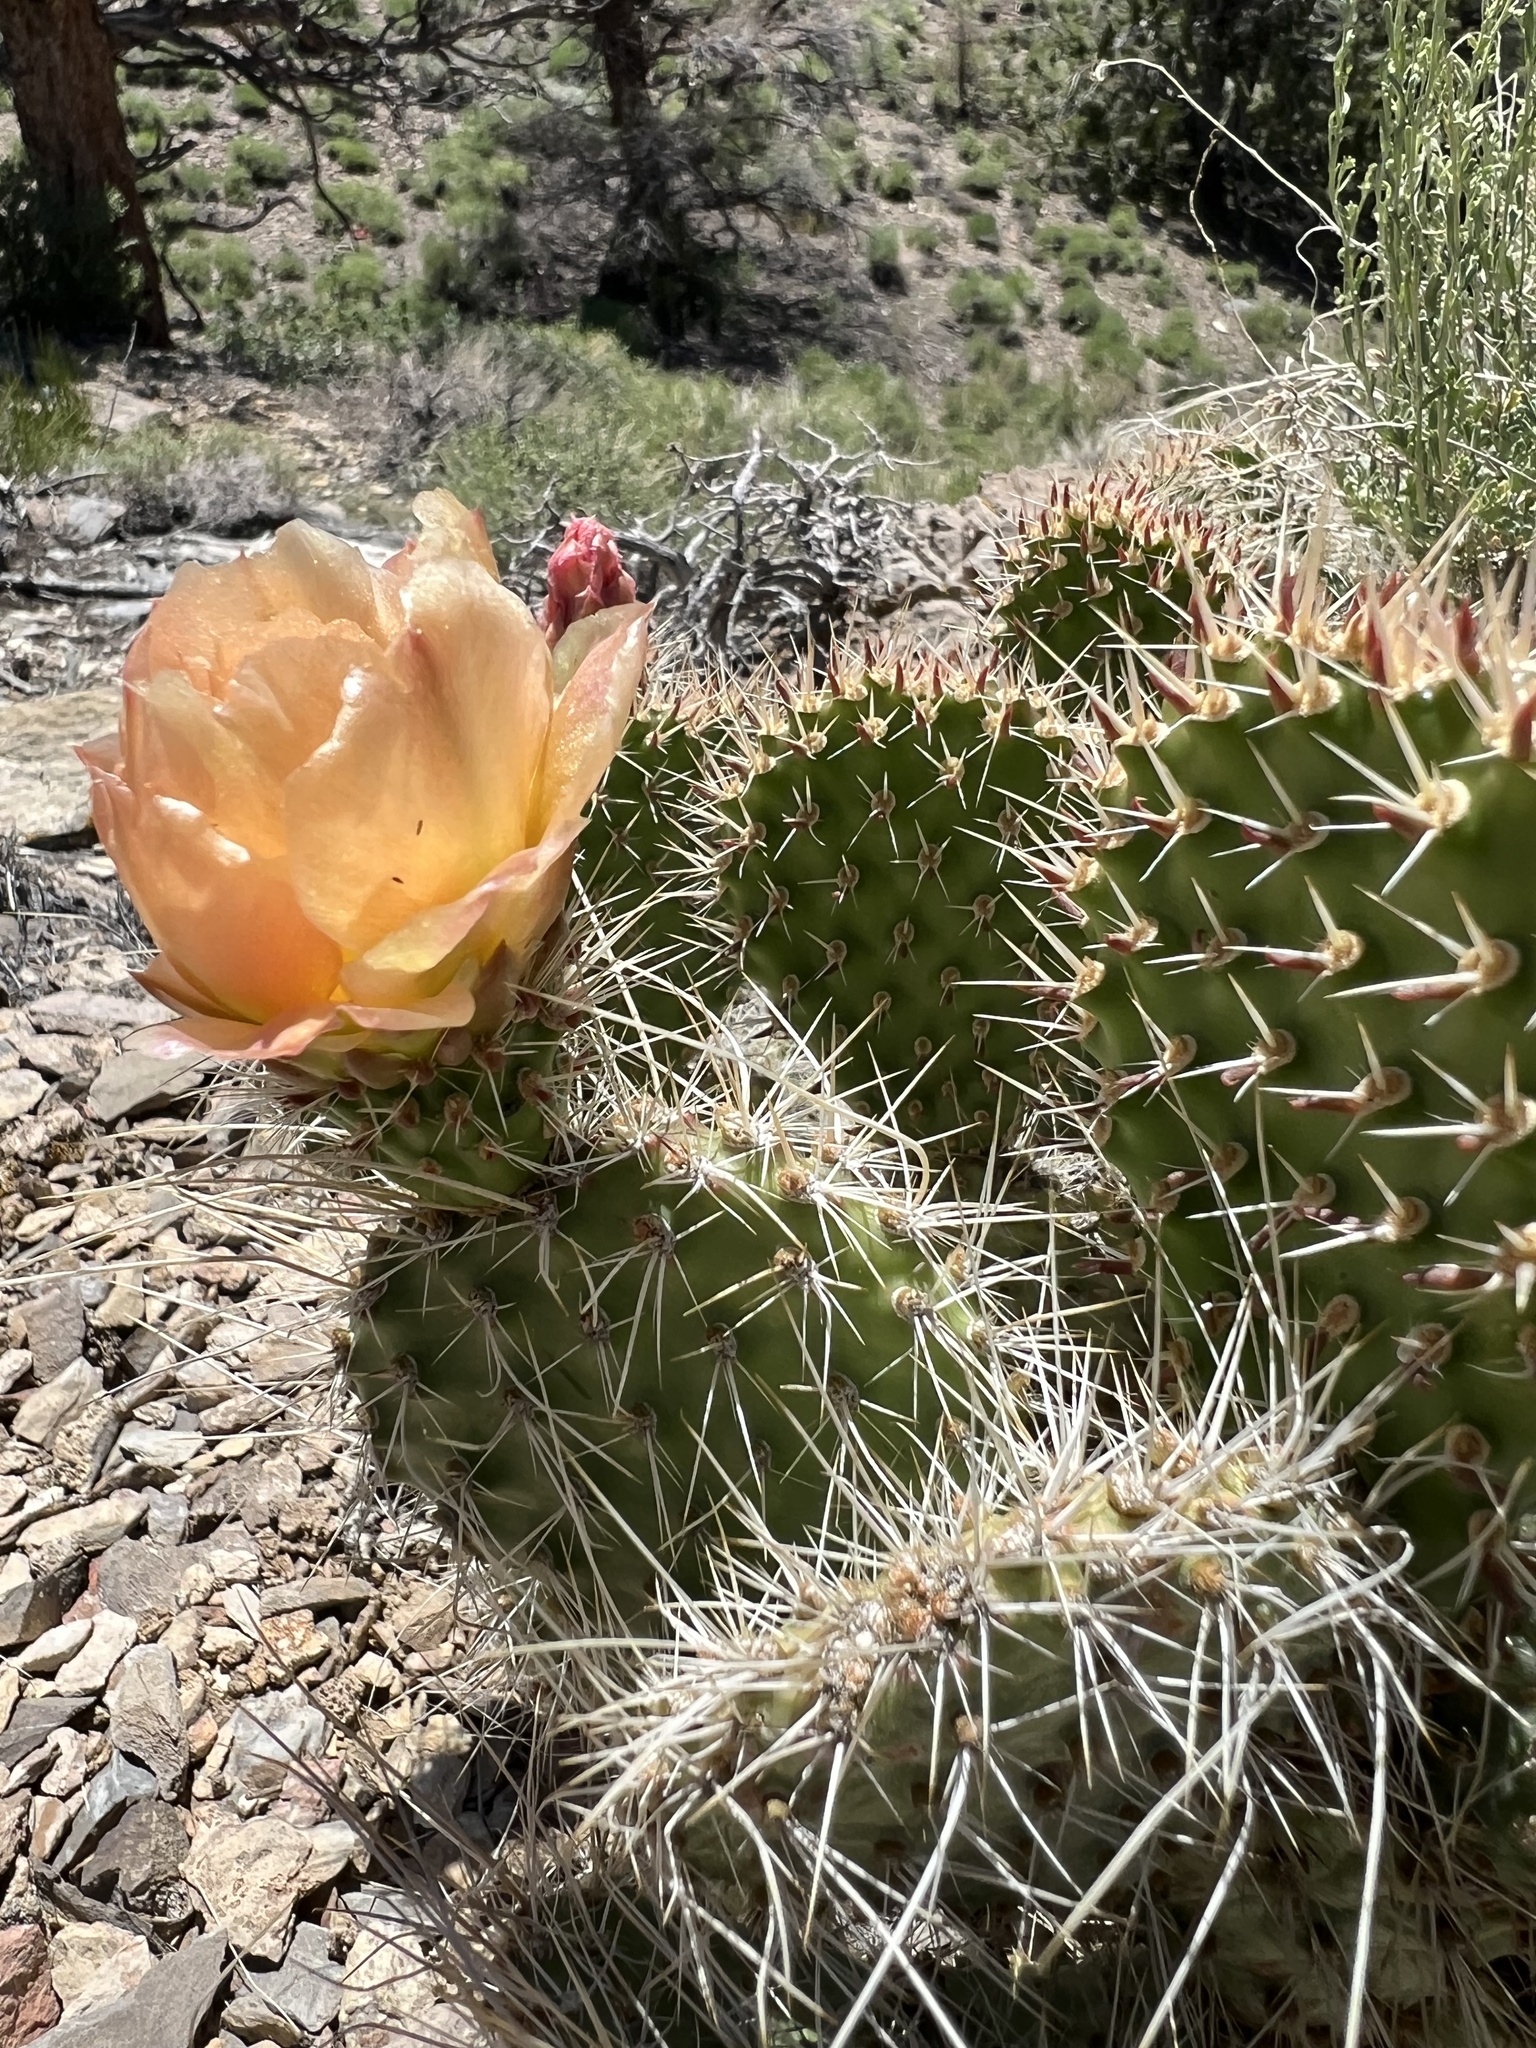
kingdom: Plantae
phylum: Tracheophyta
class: Magnoliopsida
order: Caryophyllales
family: Cactaceae
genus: Opuntia
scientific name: Opuntia polyacantha
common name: Plains prickly-pear
